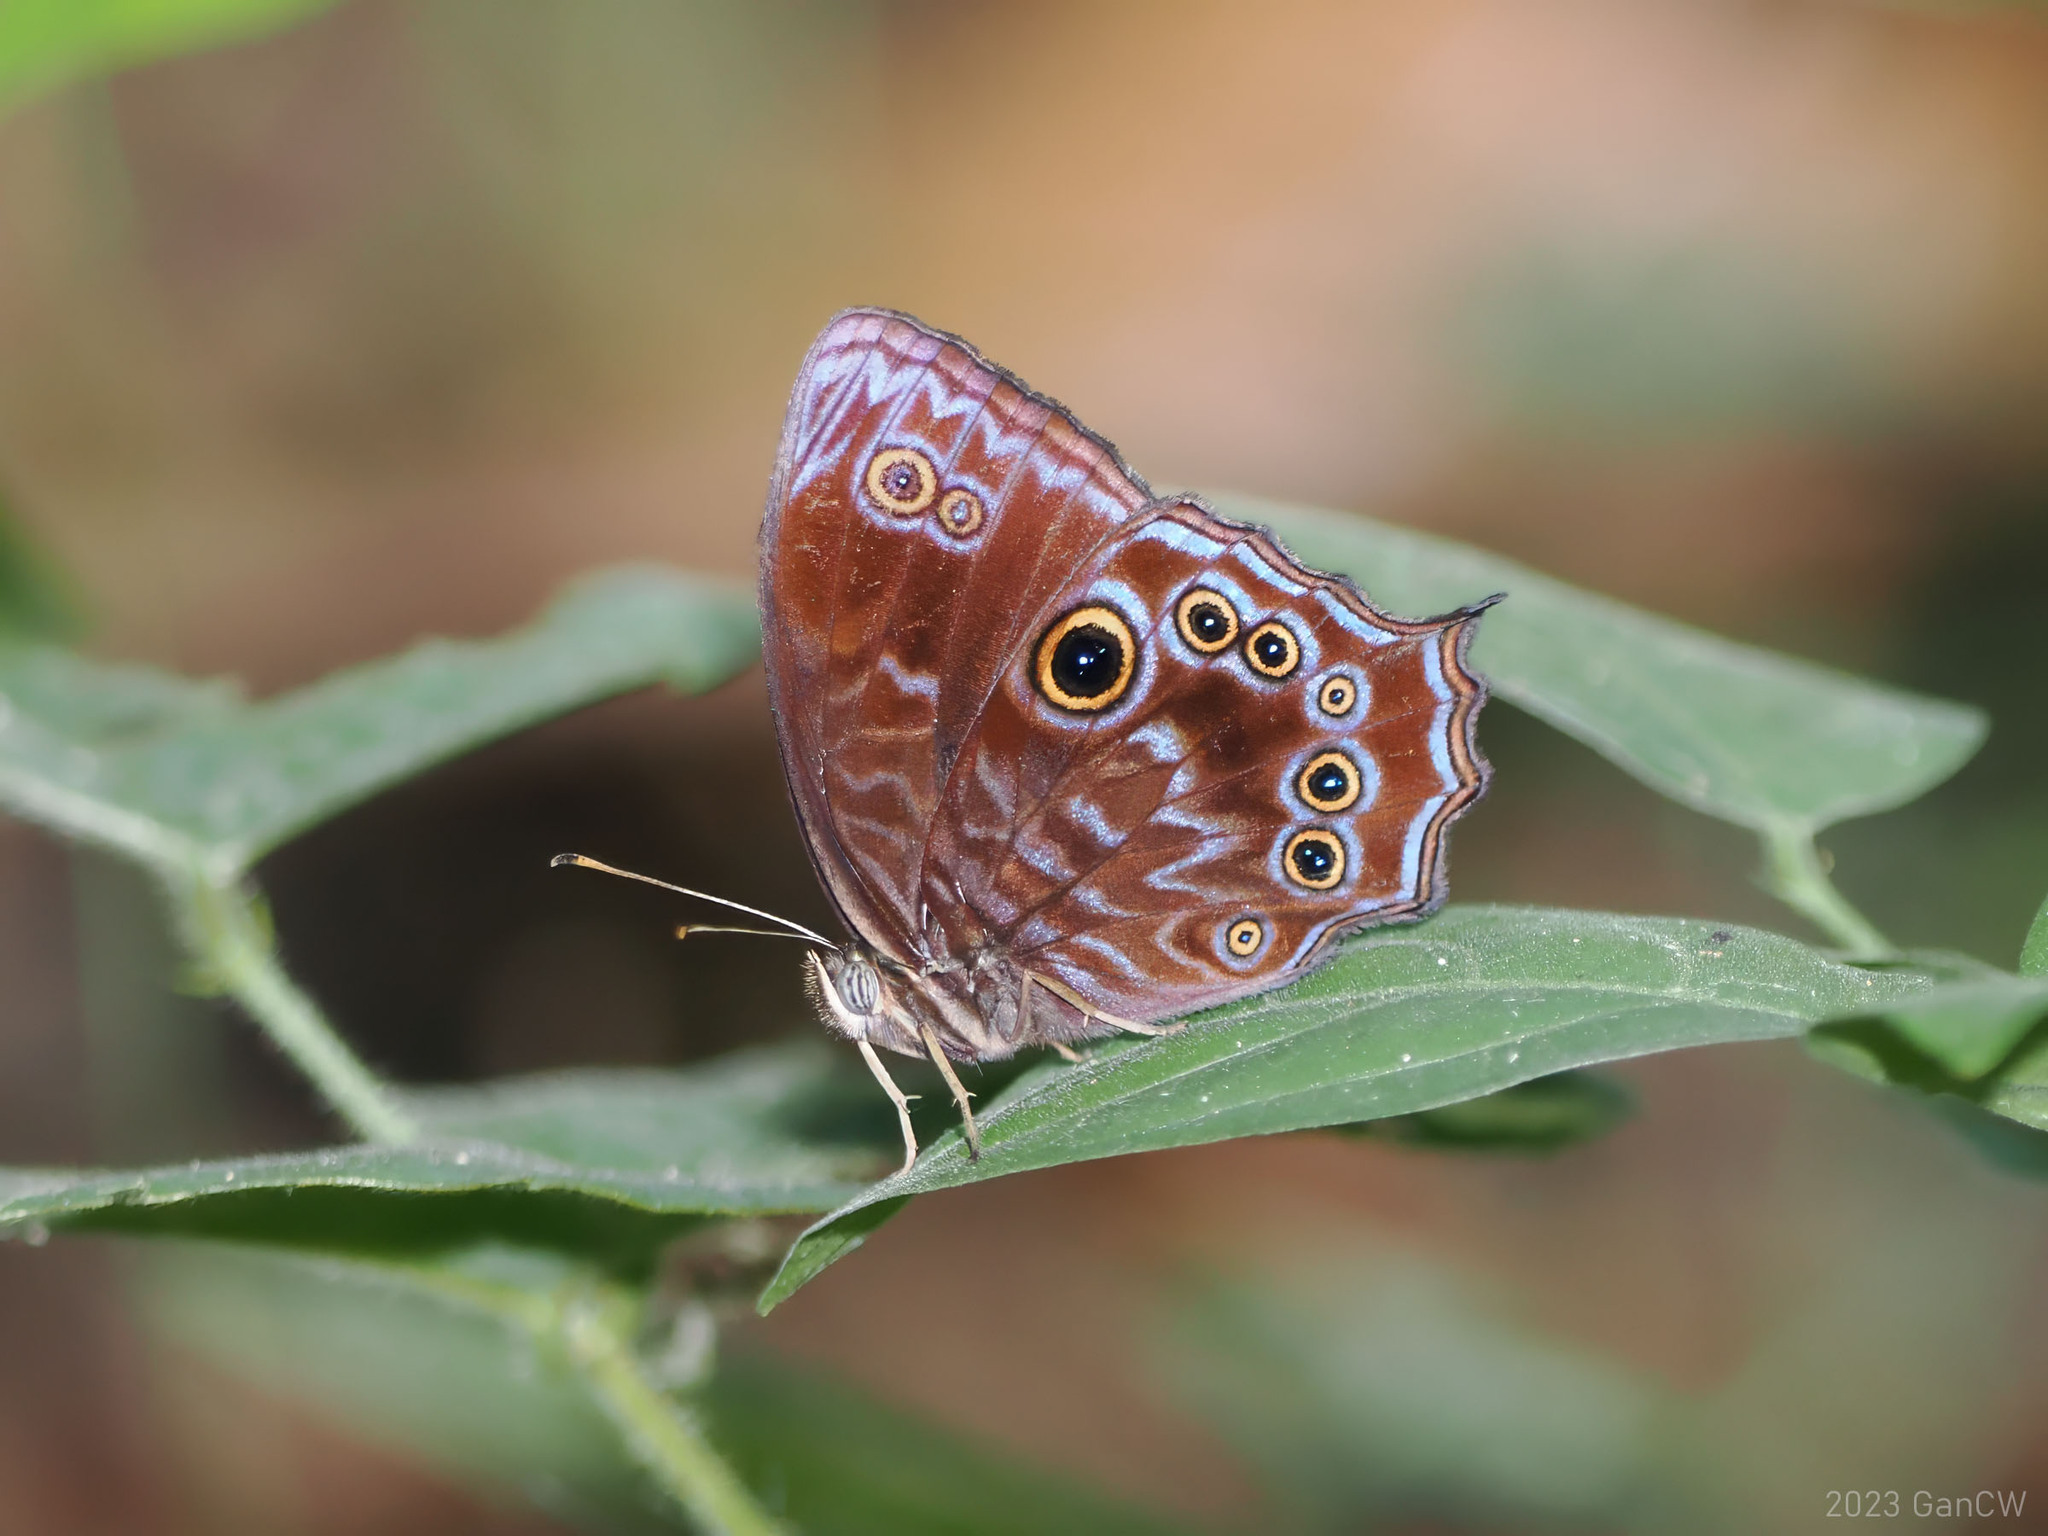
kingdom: Animalia
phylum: Arthropoda
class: Insecta
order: Lepidoptera
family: Nymphalidae
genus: Ptychandra
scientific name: Ptychandra lorquinii
